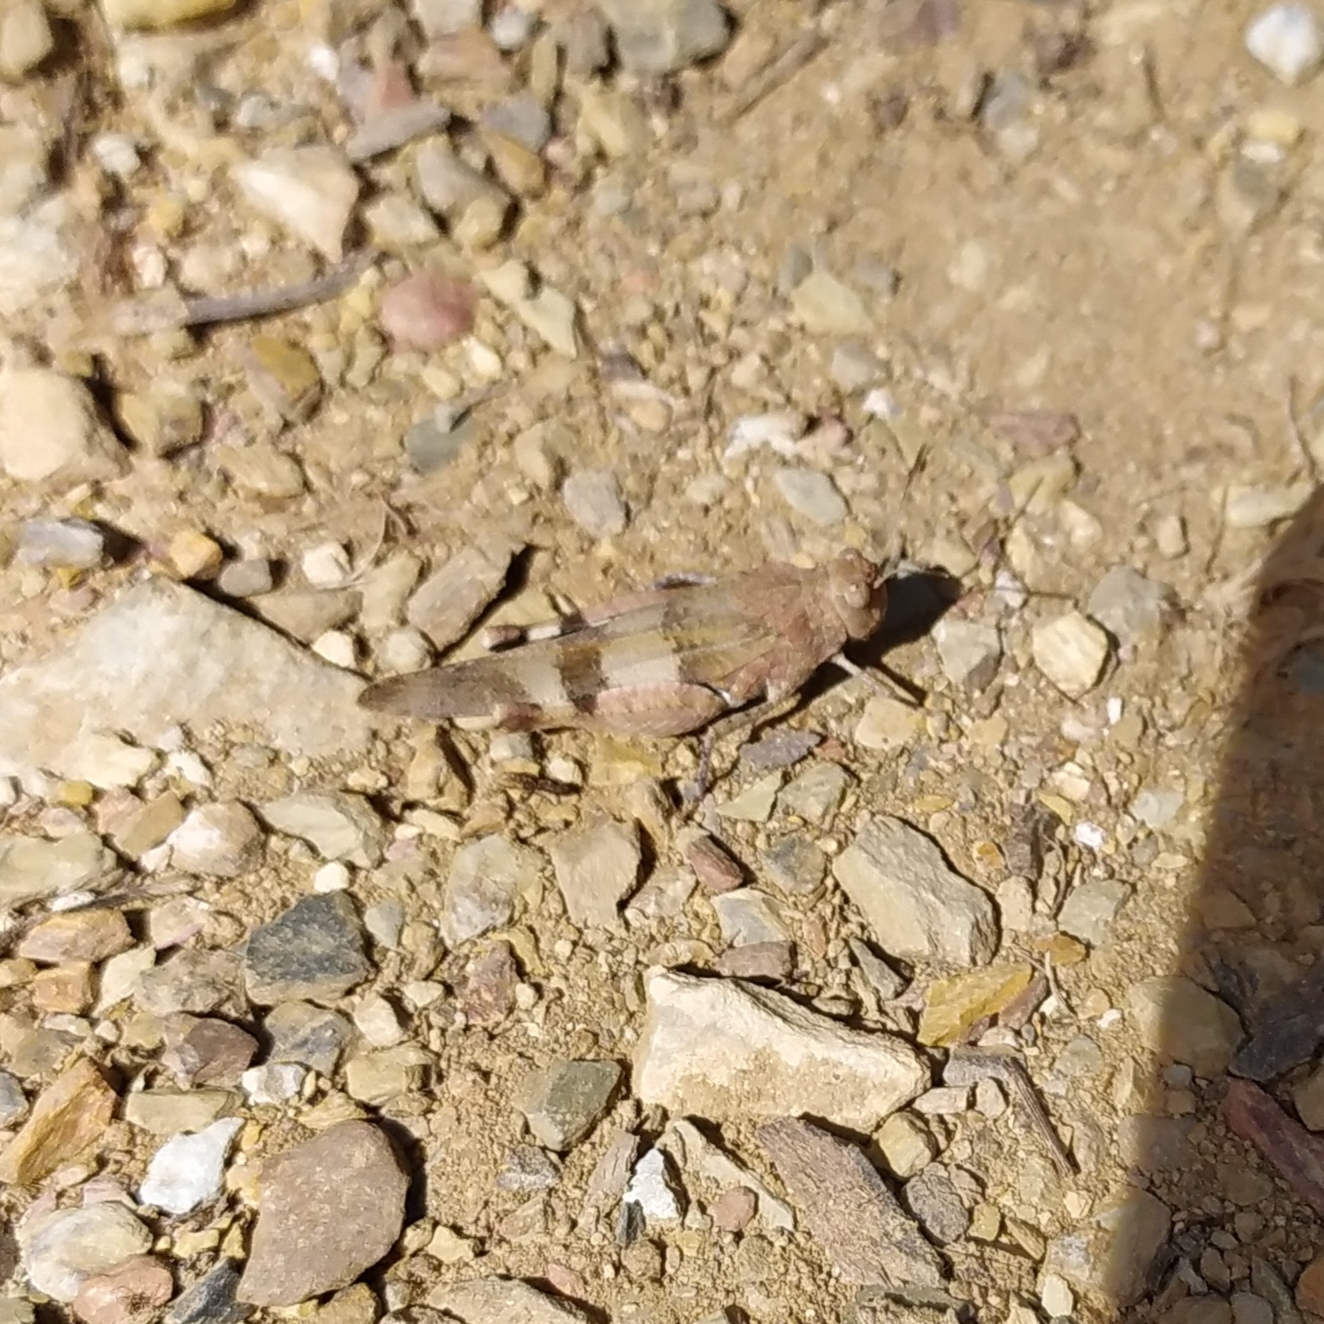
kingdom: Animalia
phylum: Arthropoda
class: Insecta
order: Orthoptera
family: Acrididae
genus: Oedipoda
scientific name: Oedipoda caerulescens
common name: Blue-winged grasshopper
